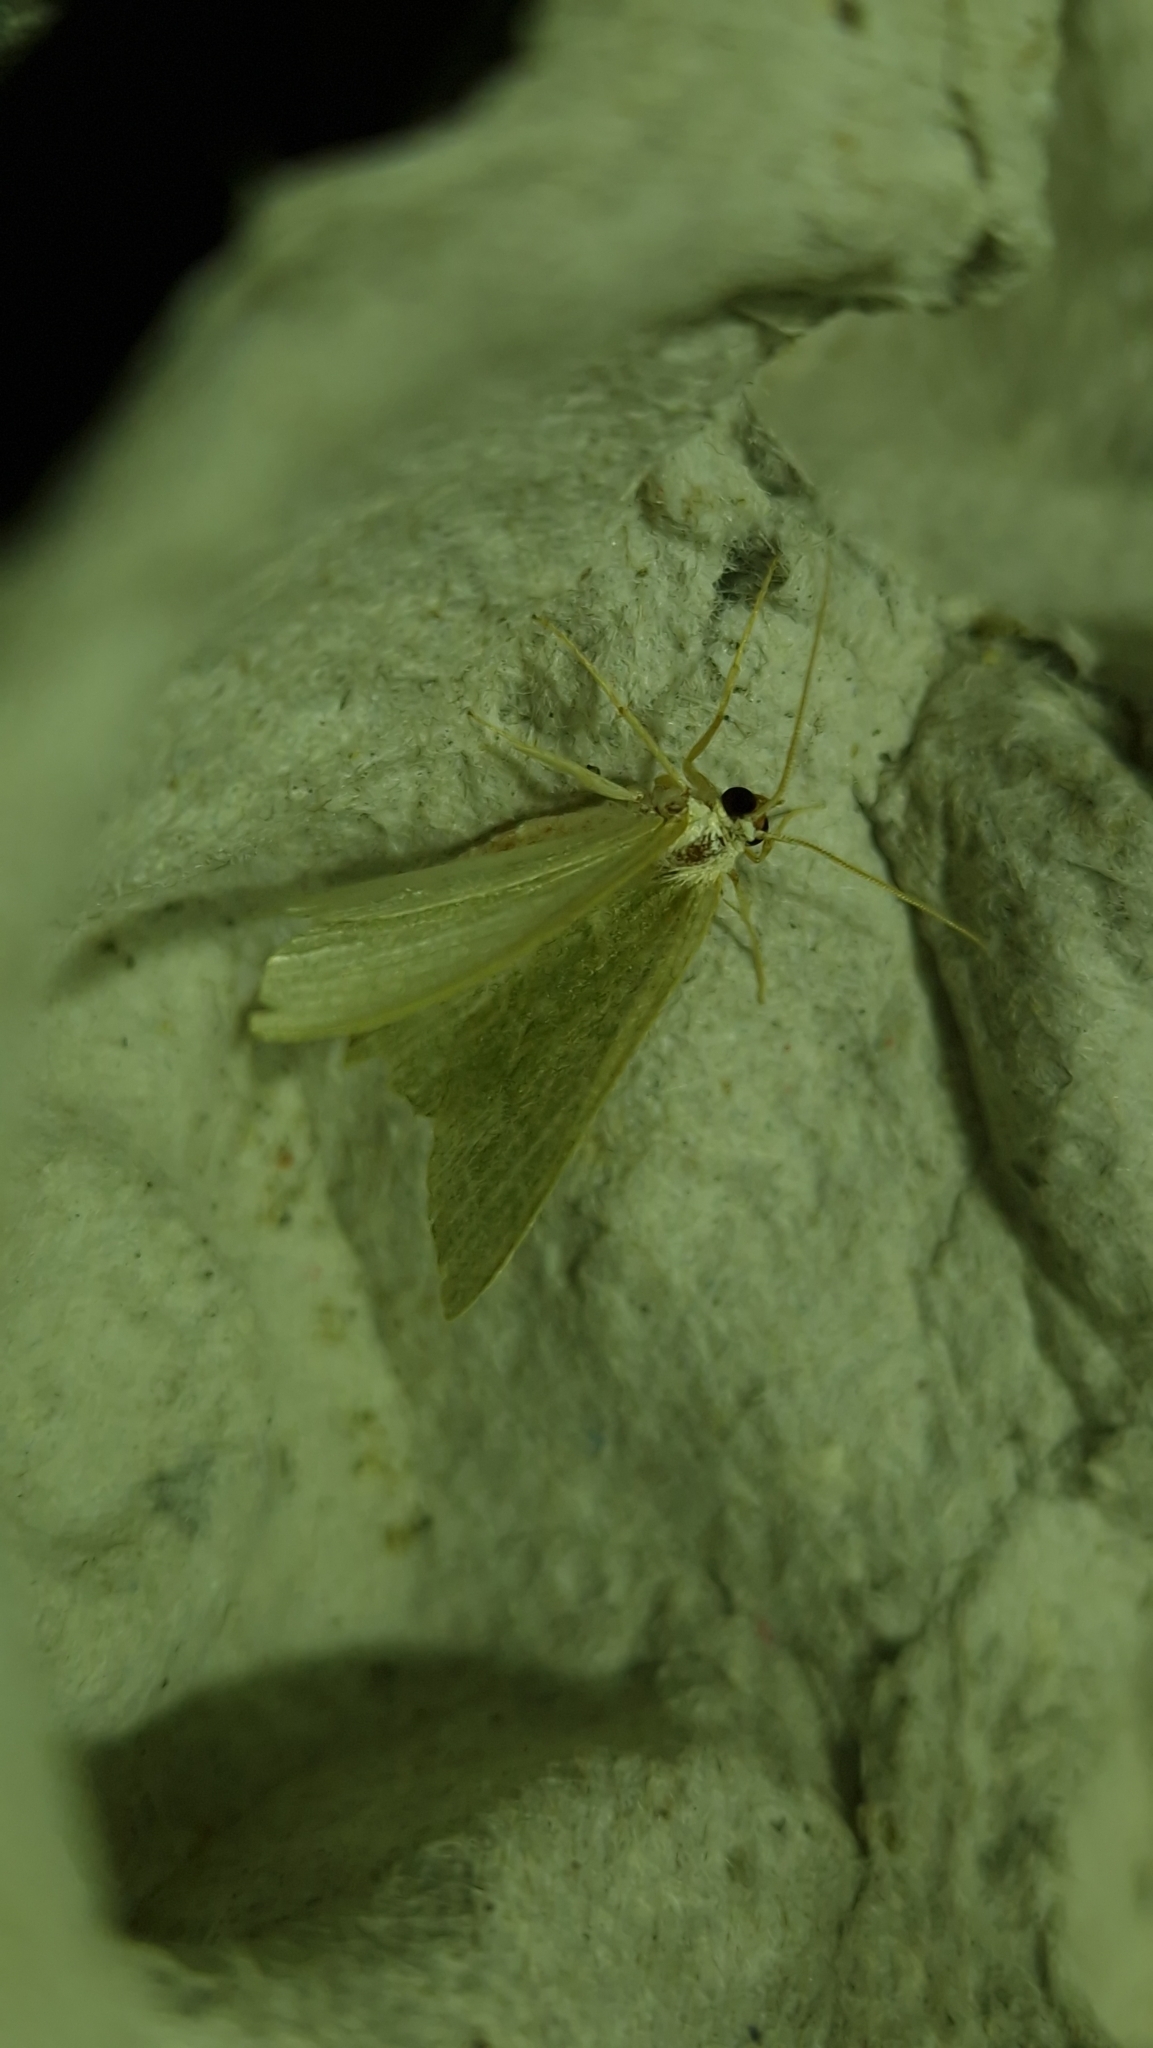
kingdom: Animalia
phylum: Arthropoda
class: Insecta
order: Lepidoptera
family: Geometridae
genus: Geometra
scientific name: Geometra papilionaria
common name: Large emerald
